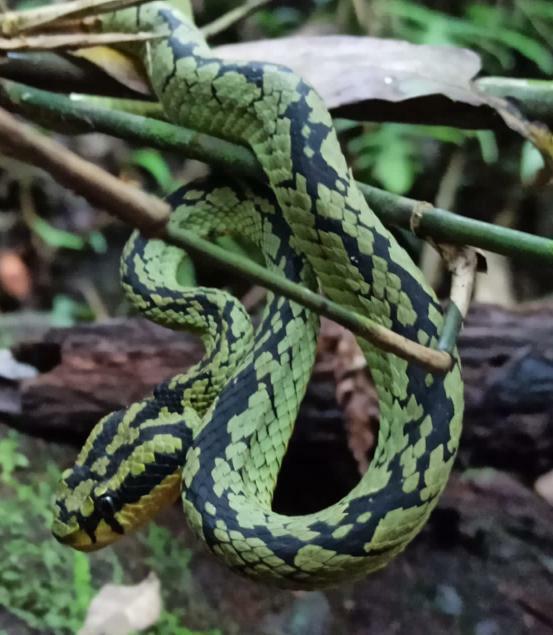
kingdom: Animalia
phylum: Chordata
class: Squamata
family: Viperidae
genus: Craspedocephalus
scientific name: Craspedocephalus trigonocephalus
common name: Ceylon pit viper
